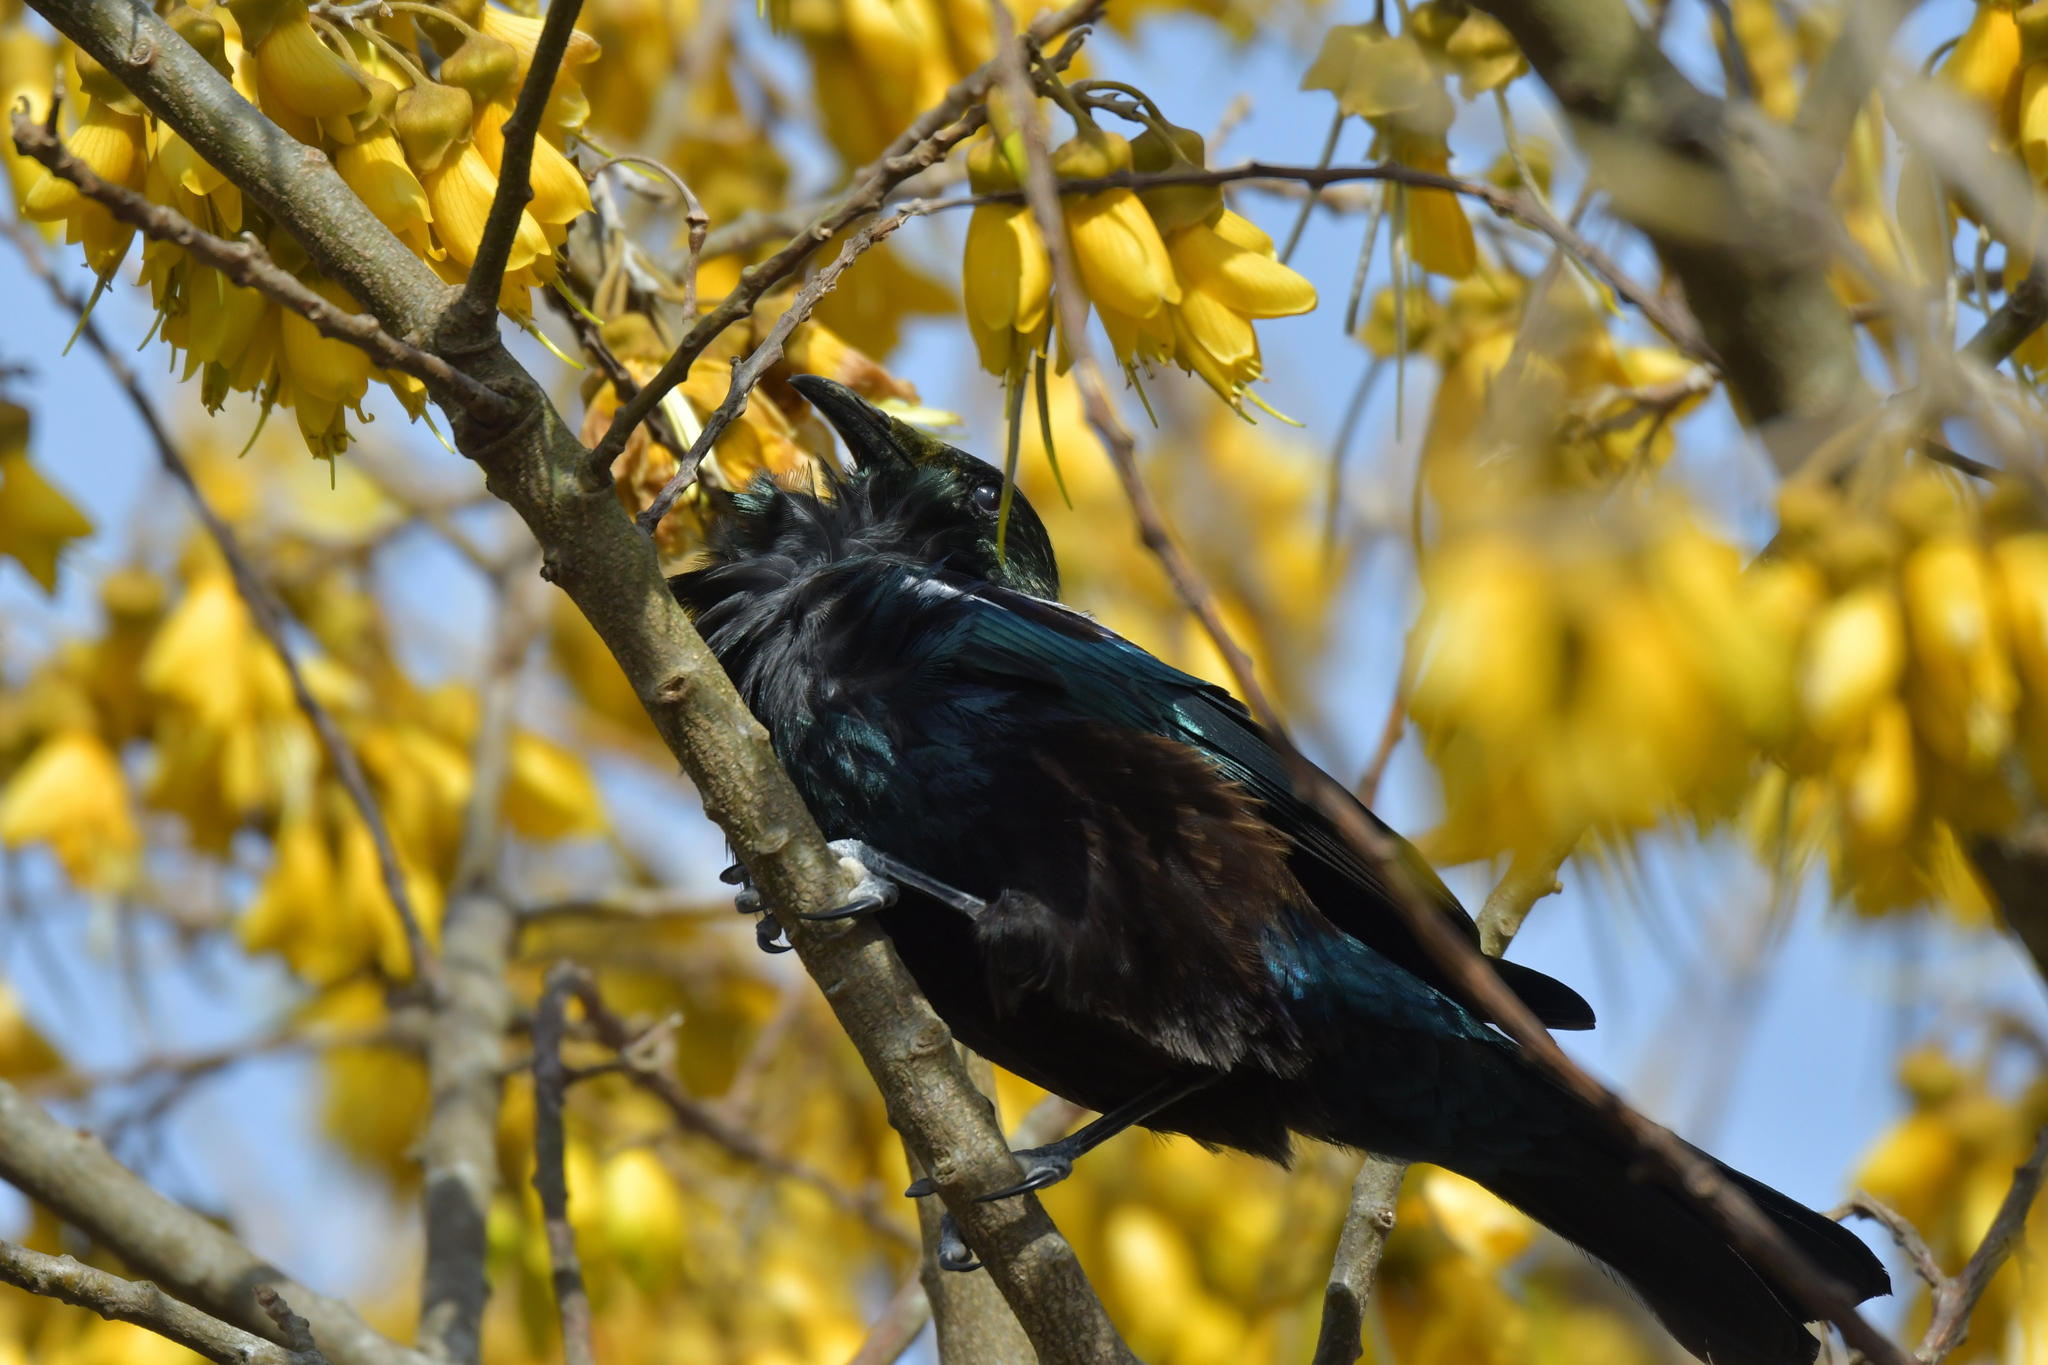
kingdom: Animalia
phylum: Chordata
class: Aves
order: Passeriformes
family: Meliphagidae
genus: Prosthemadera
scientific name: Prosthemadera novaeseelandiae
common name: Tui
